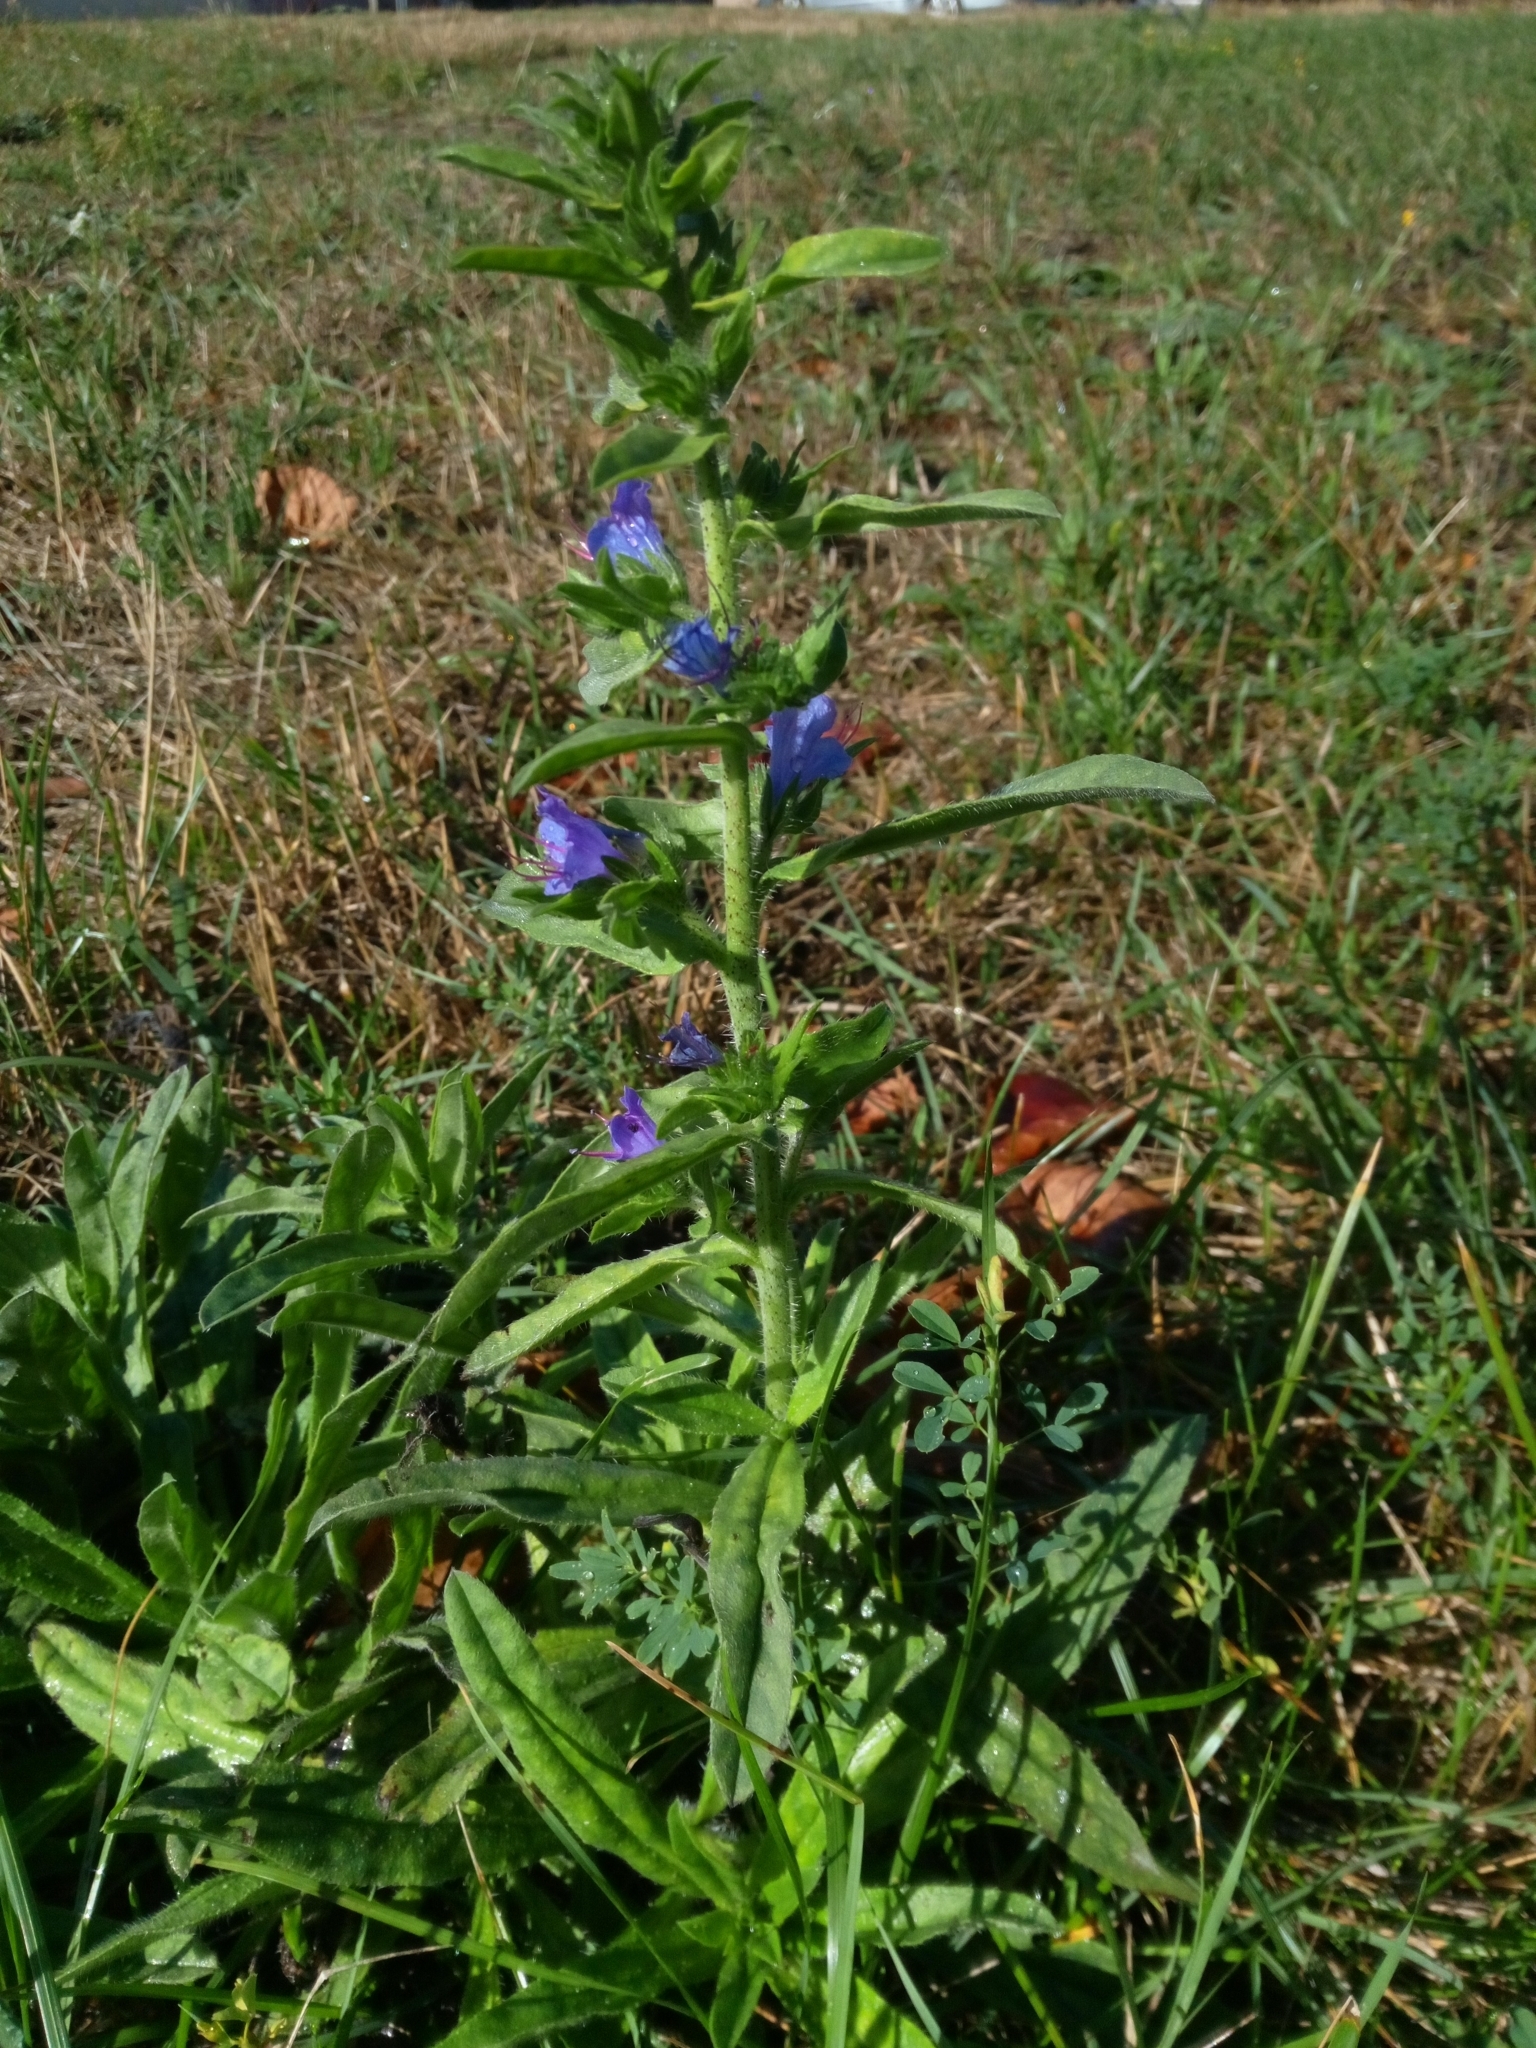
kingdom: Plantae
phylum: Tracheophyta
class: Magnoliopsida
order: Boraginales
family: Boraginaceae
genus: Echium
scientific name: Echium vulgare
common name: Common viper's bugloss
